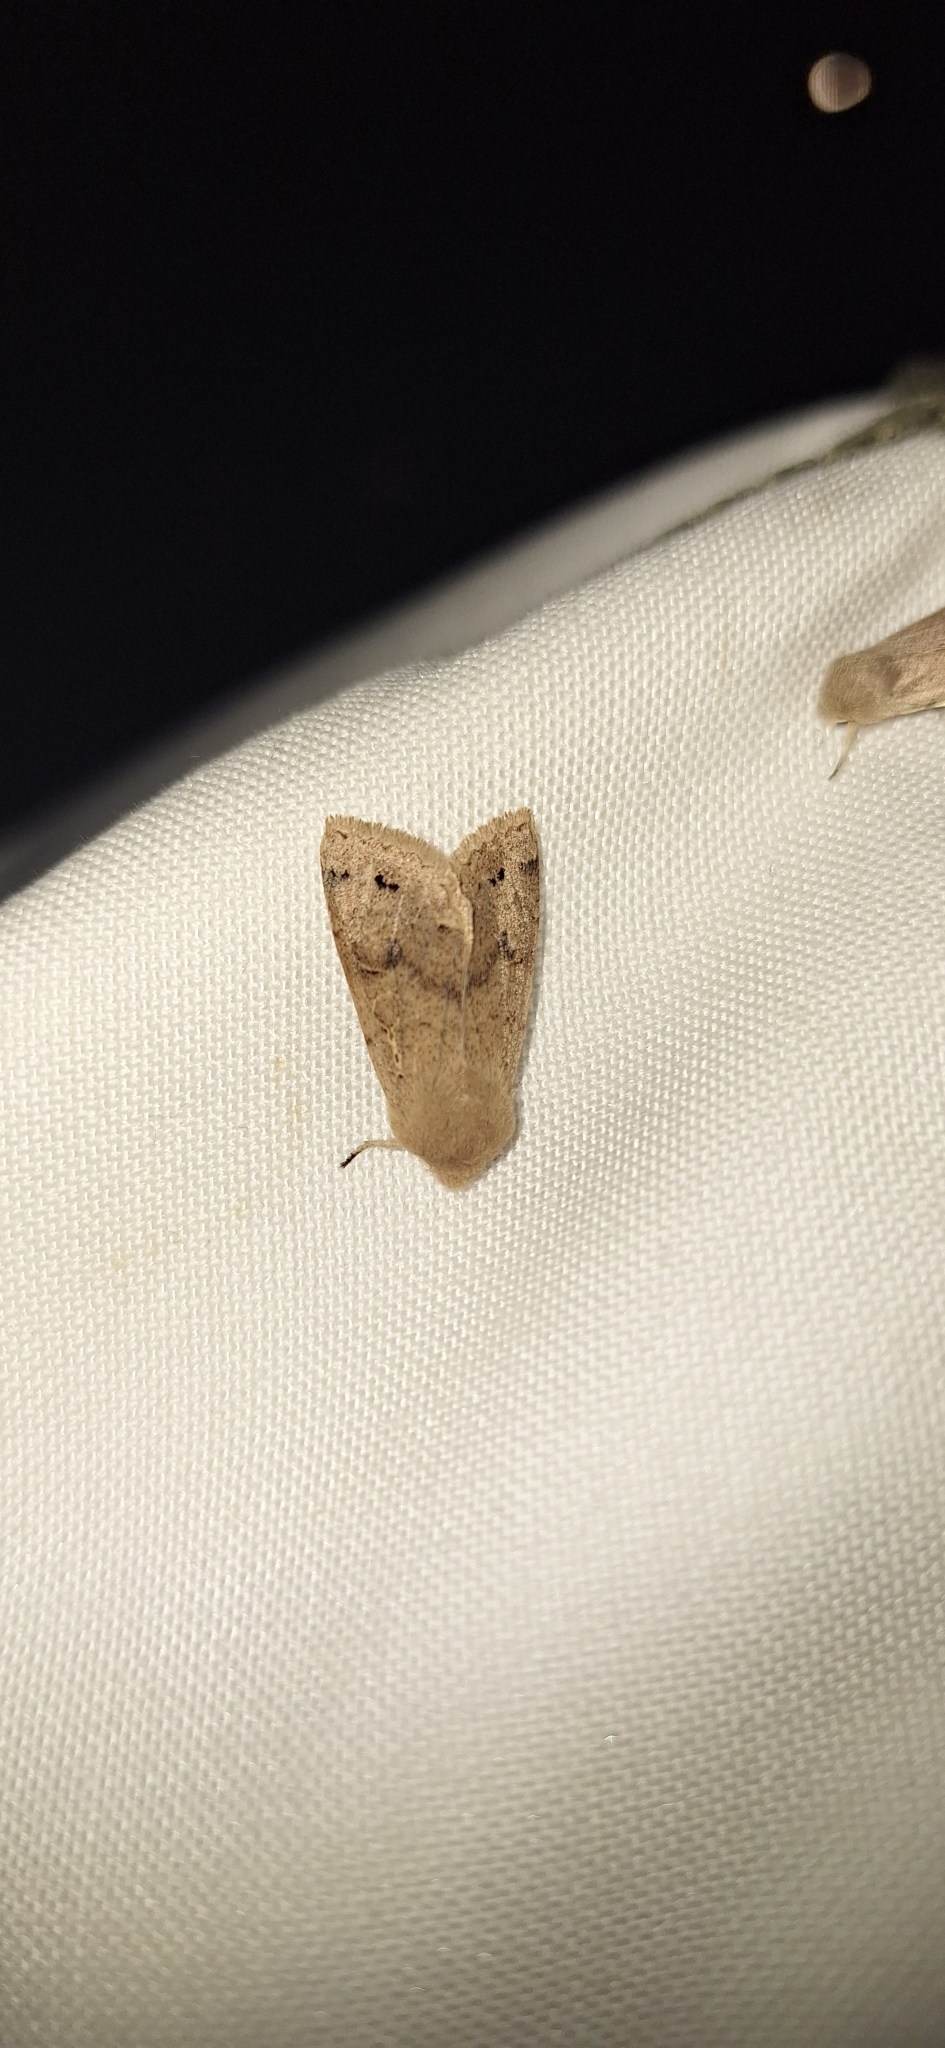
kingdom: Animalia
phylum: Arthropoda
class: Insecta
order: Lepidoptera
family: Noctuidae
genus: Anorthoa
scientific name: Anorthoa munda
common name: Twin-spotted quaker
